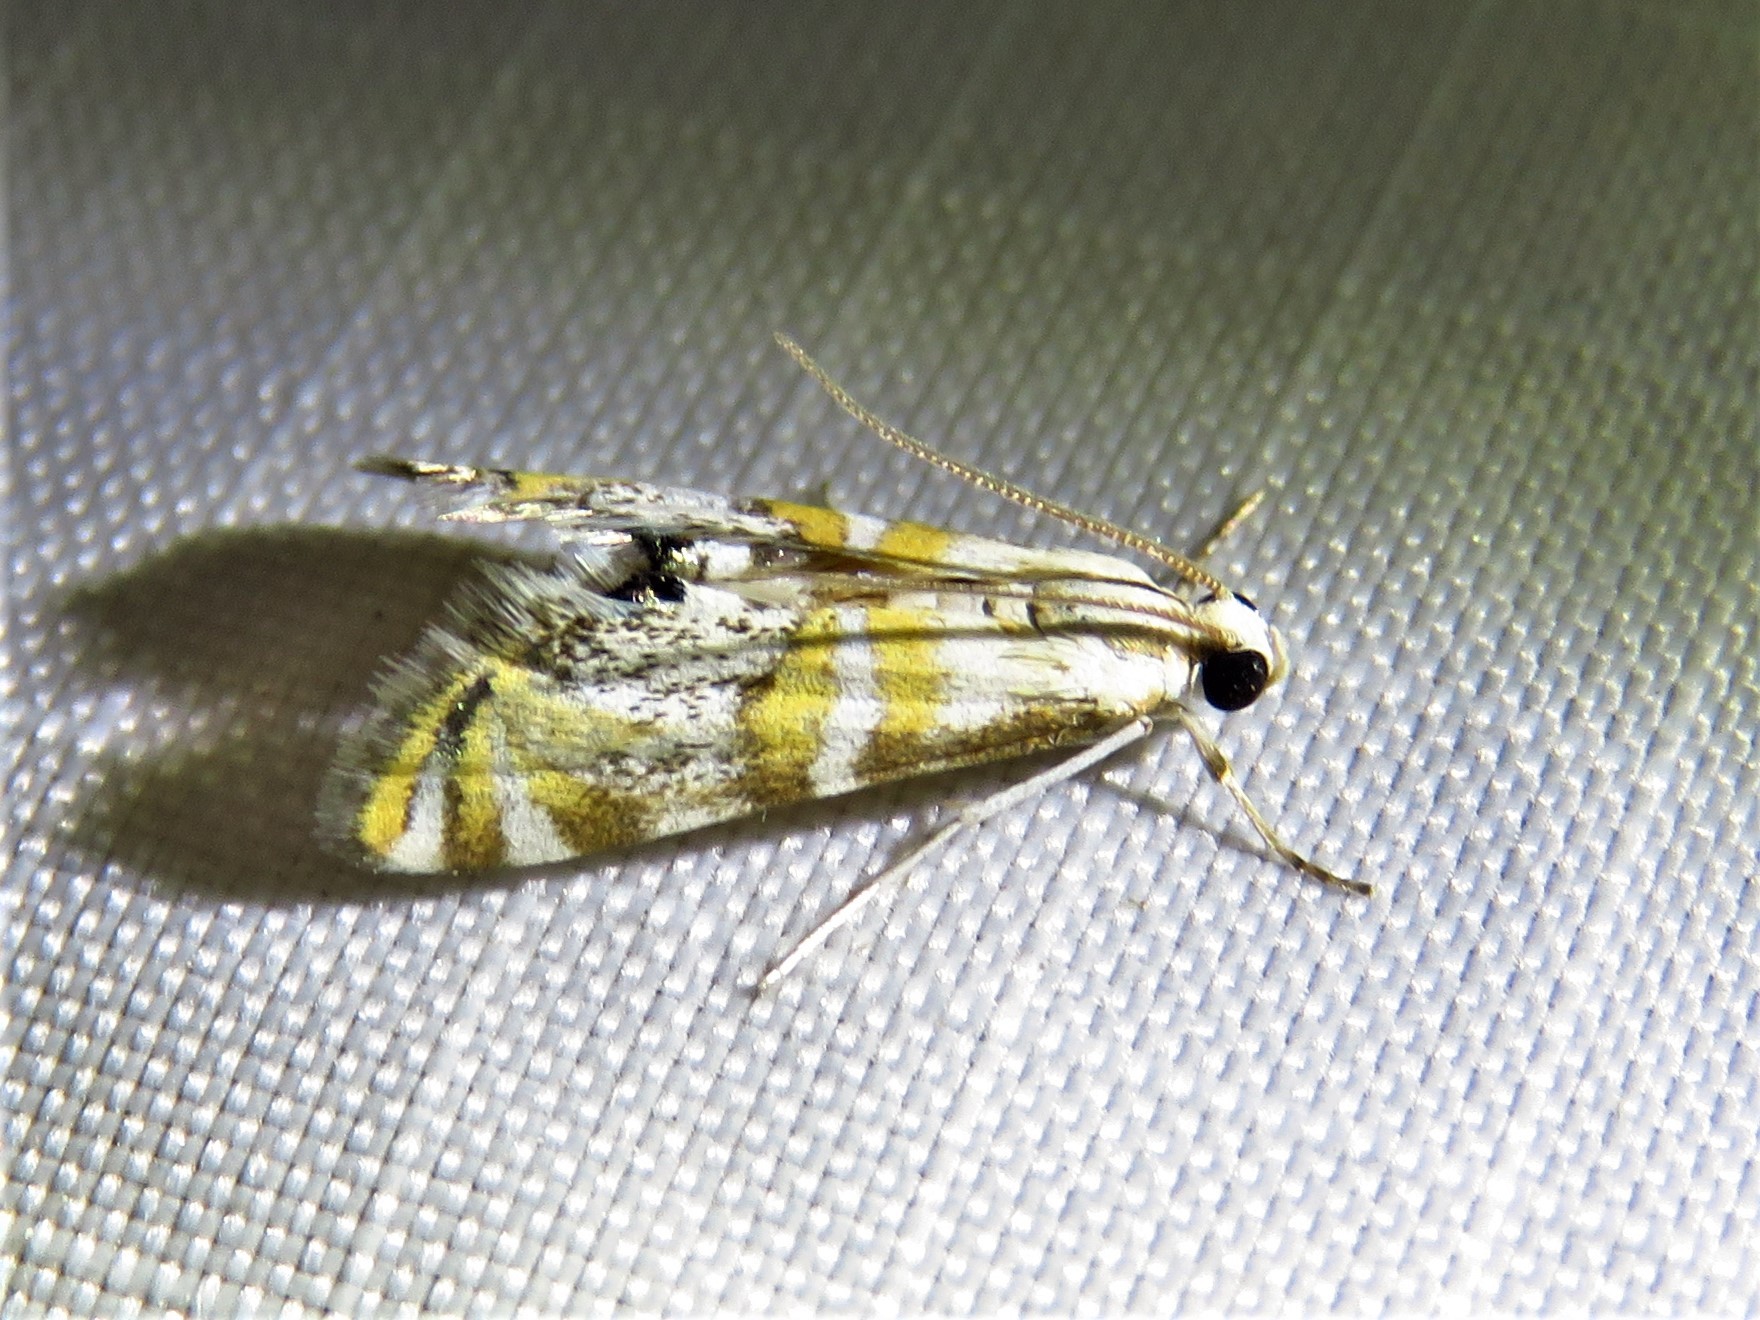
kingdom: Animalia
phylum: Arthropoda
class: Insecta
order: Lepidoptera
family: Crambidae
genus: Petrophila
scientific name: Petrophila kearfottalis
